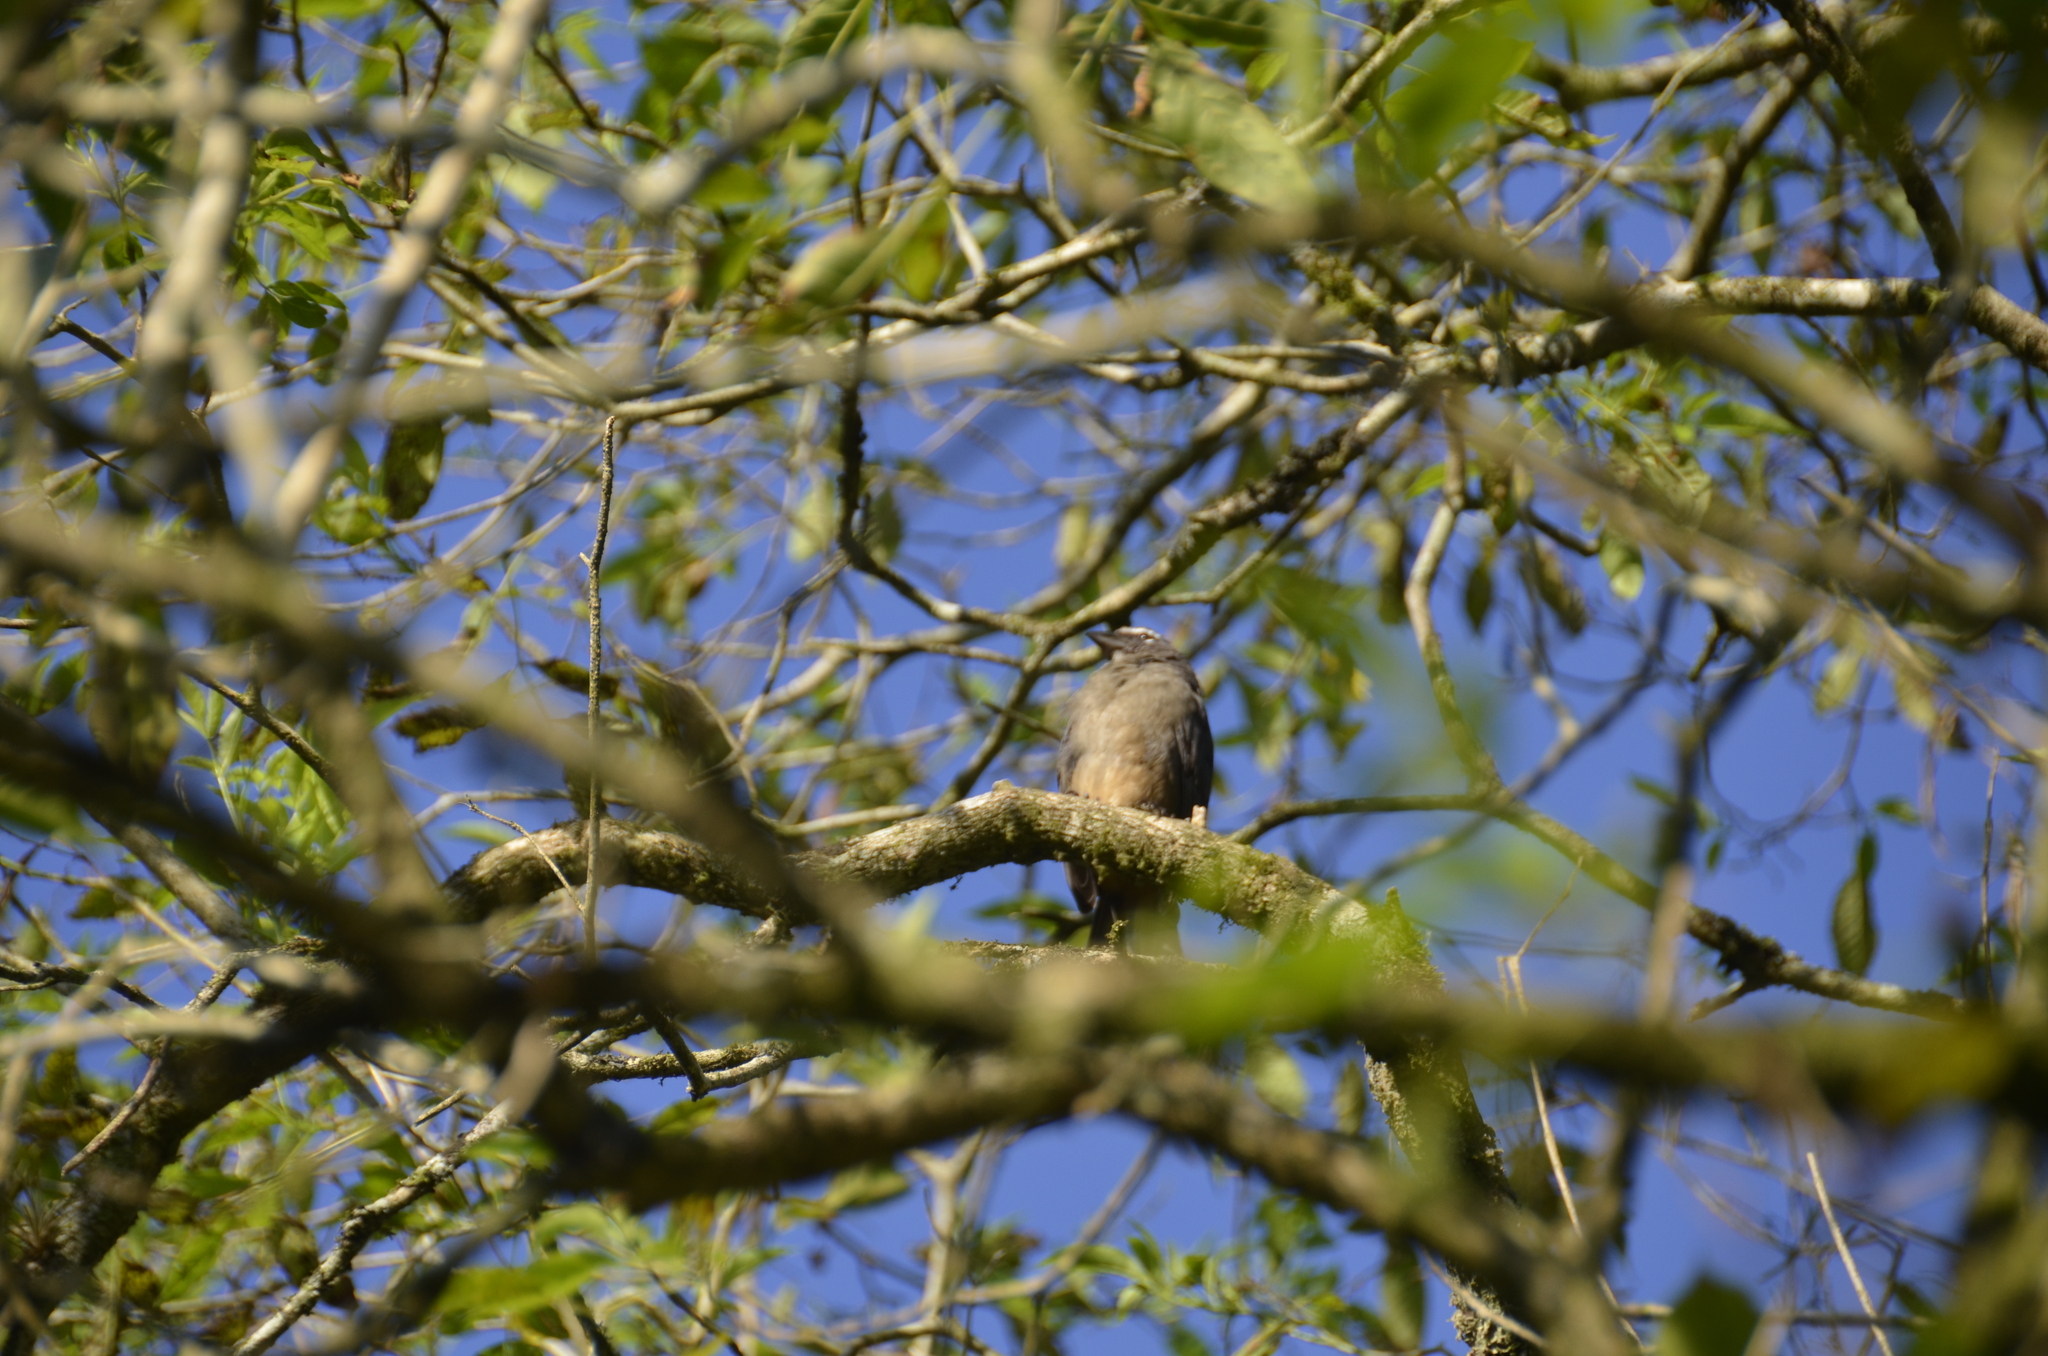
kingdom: Animalia
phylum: Chordata
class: Aves
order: Passeriformes
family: Thraupidae
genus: Saltator
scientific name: Saltator grandis
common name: Cinnamon-bellied saltator
